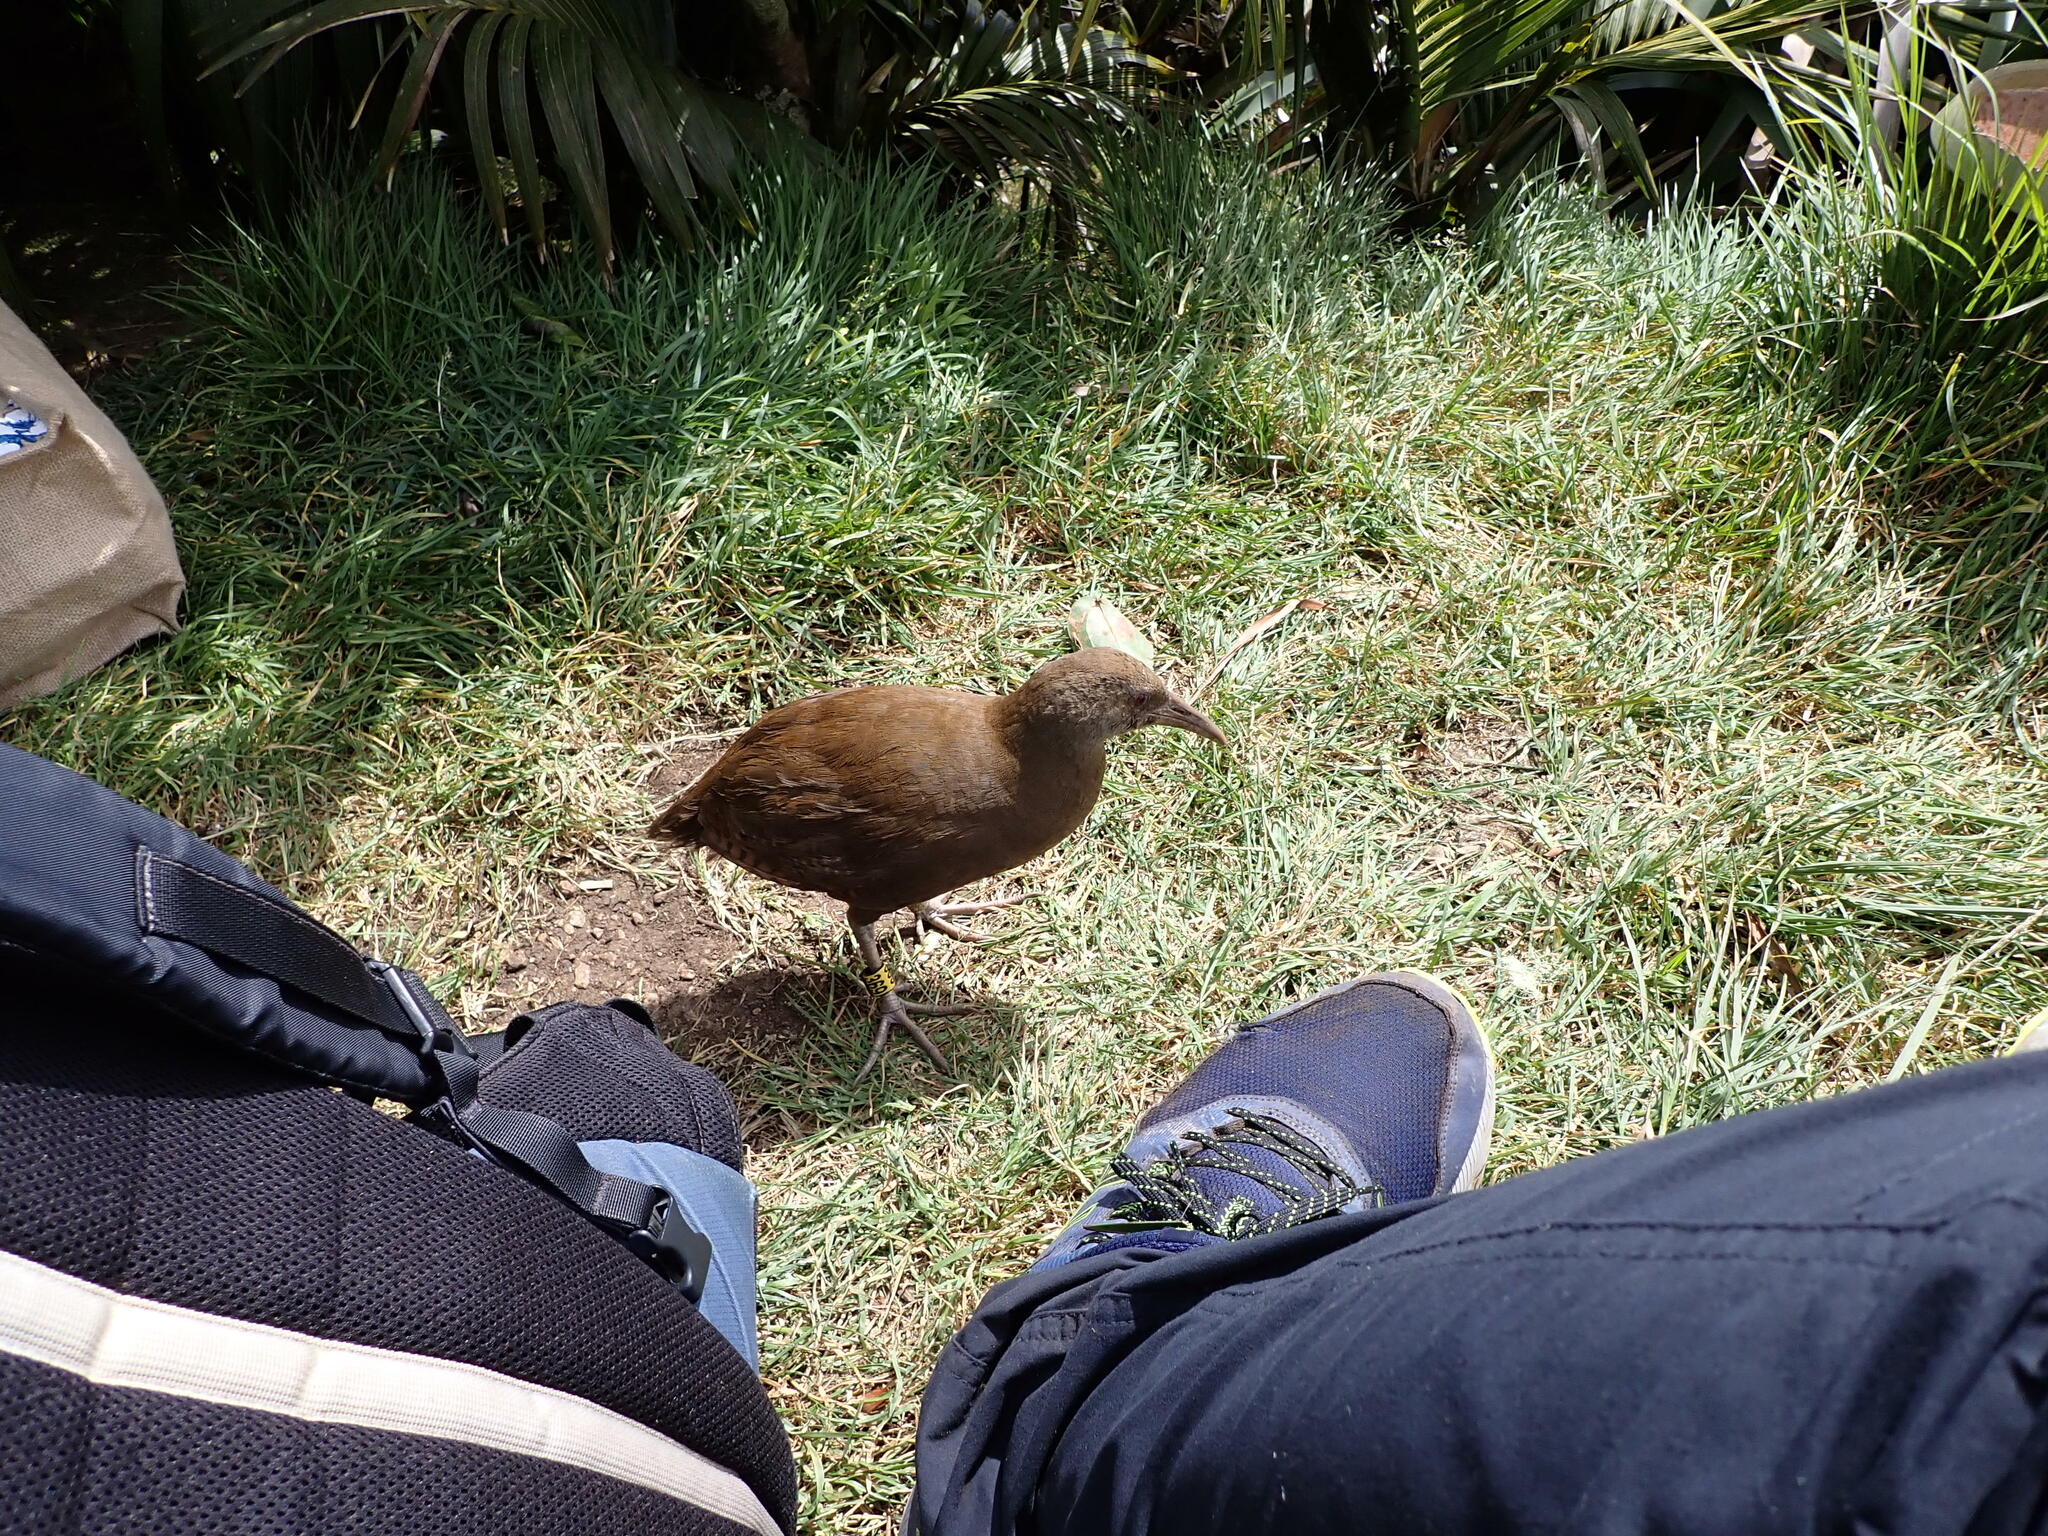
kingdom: Animalia
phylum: Chordata
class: Aves
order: Gruiformes
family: Rallidae
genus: Gallirallus
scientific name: Gallirallus sylvestris
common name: Lord howe woodhen
